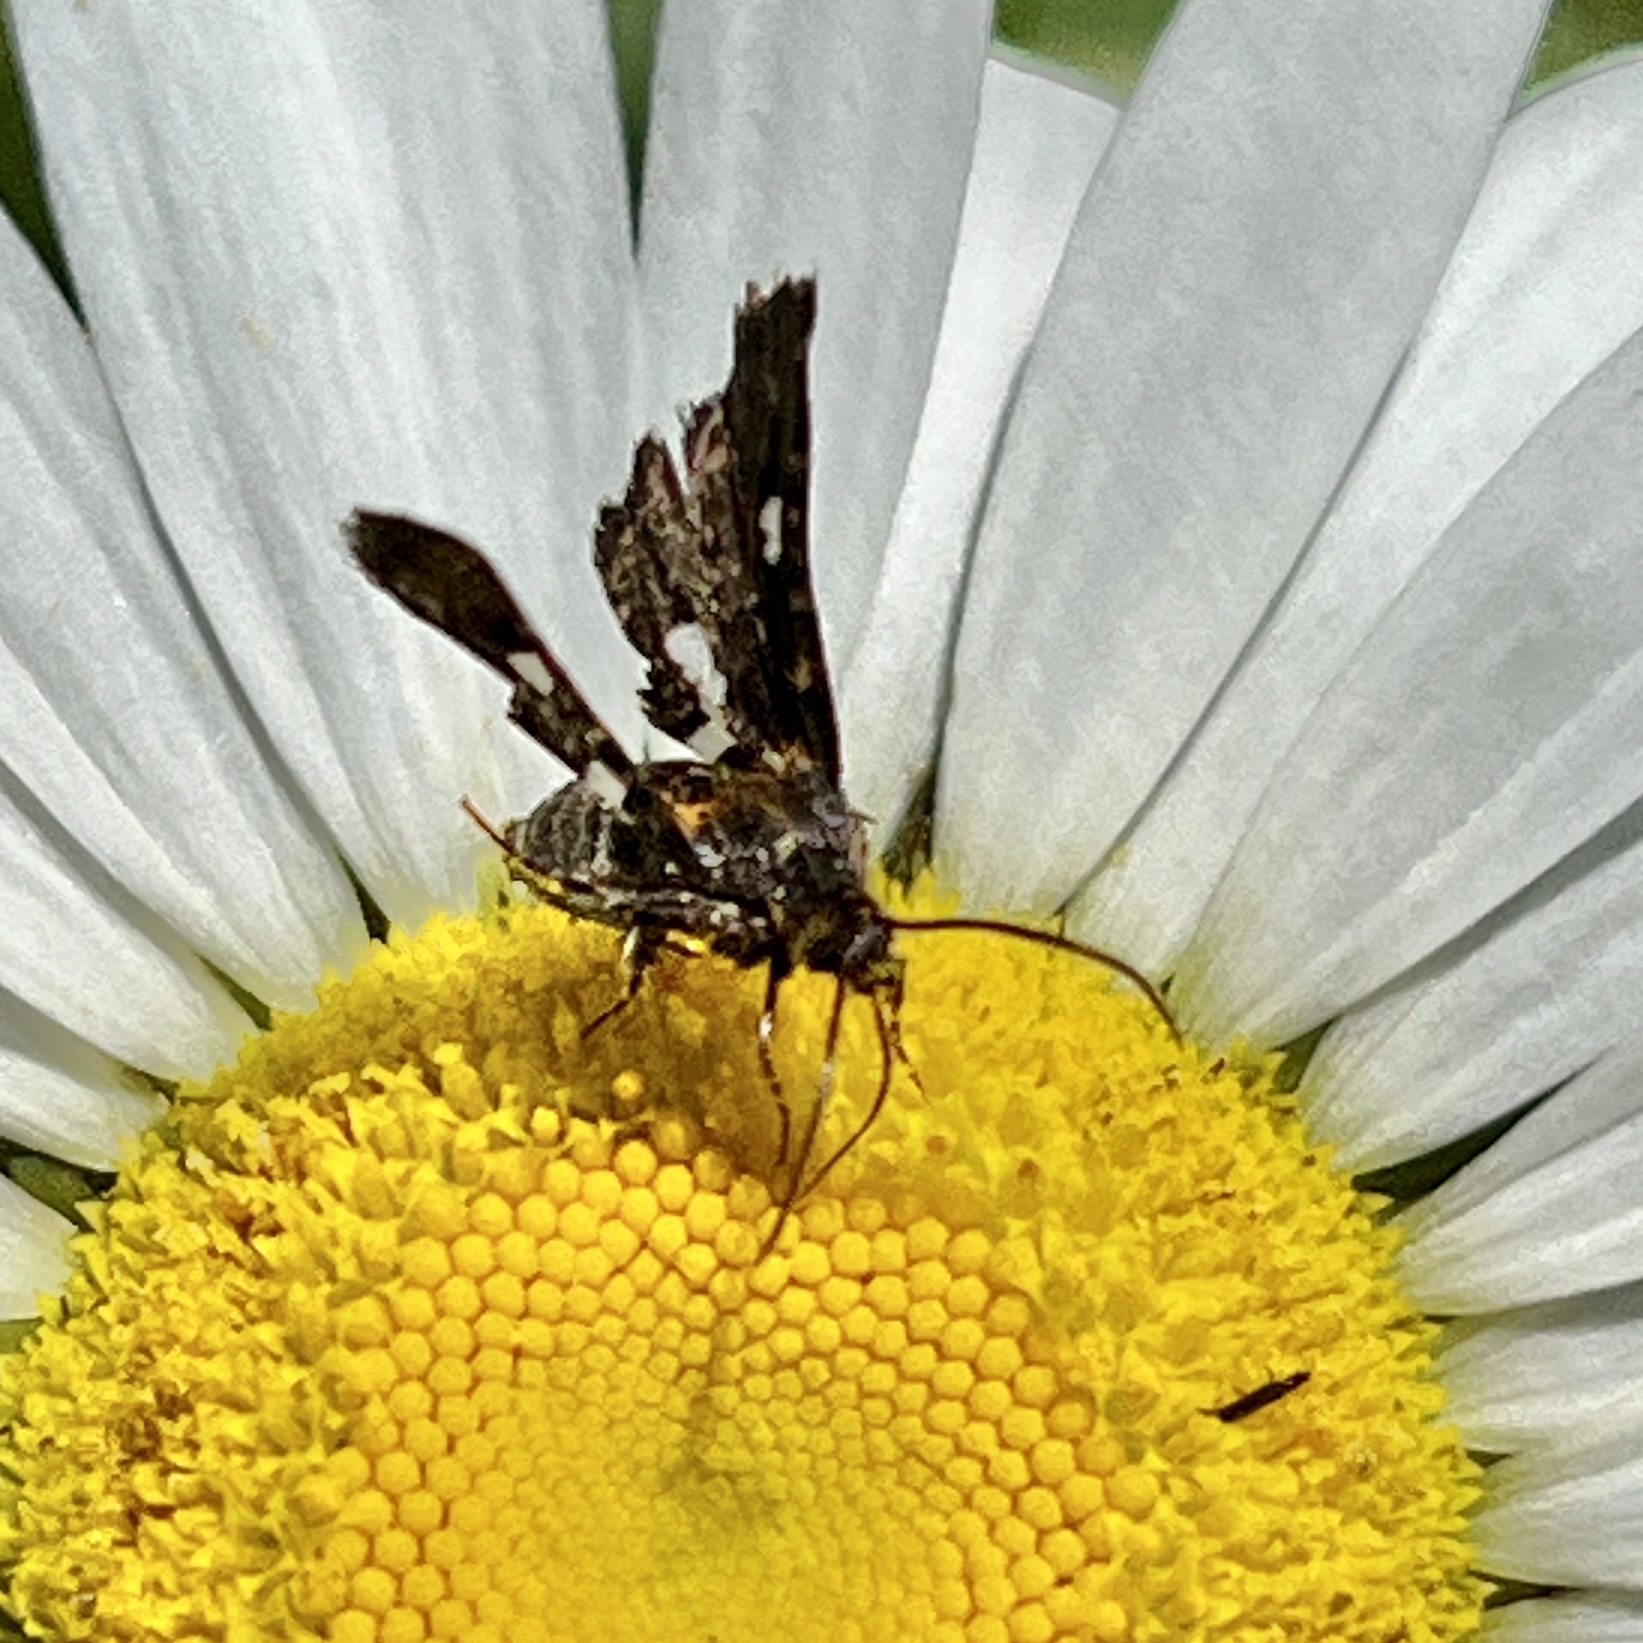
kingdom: Animalia
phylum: Arthropoda
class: Insecta
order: Lepidoptera
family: Thyrididae
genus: Thyris
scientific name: Thyris maculata
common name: Spotted thyris moth
